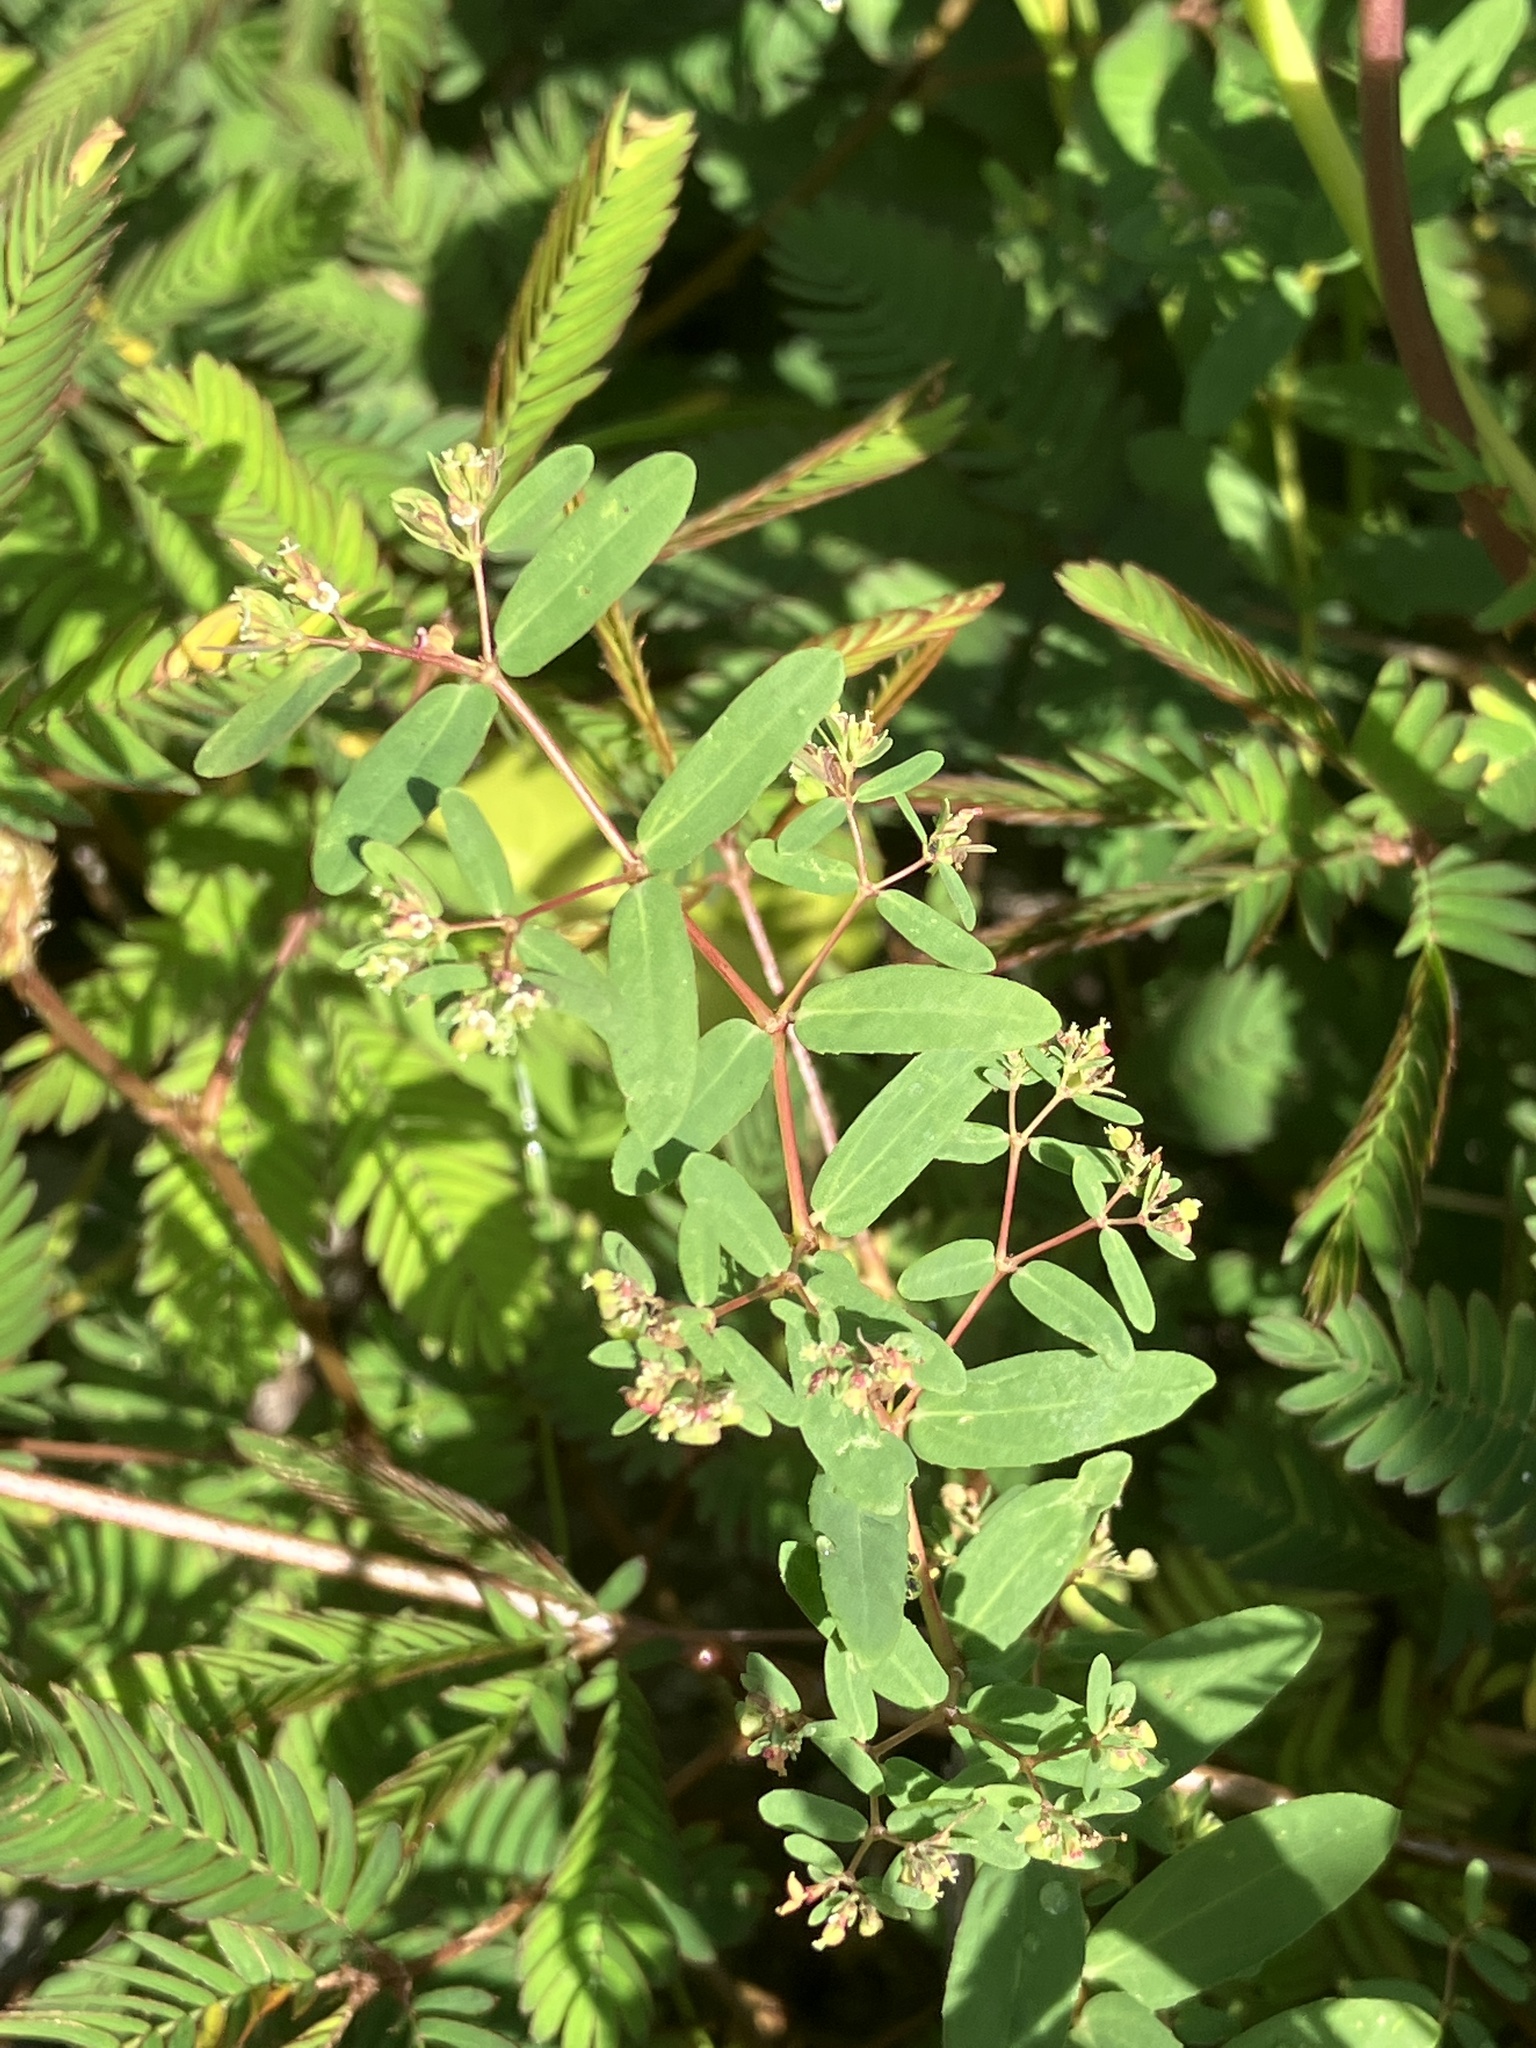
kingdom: Plantae
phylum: Tracheophyta
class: Magnoliopsida
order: Malpighiales
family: Euphorbiaceae
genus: Euphorbia
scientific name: Euphorbia hyssopifolia
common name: Hyssopleaf sandmat
